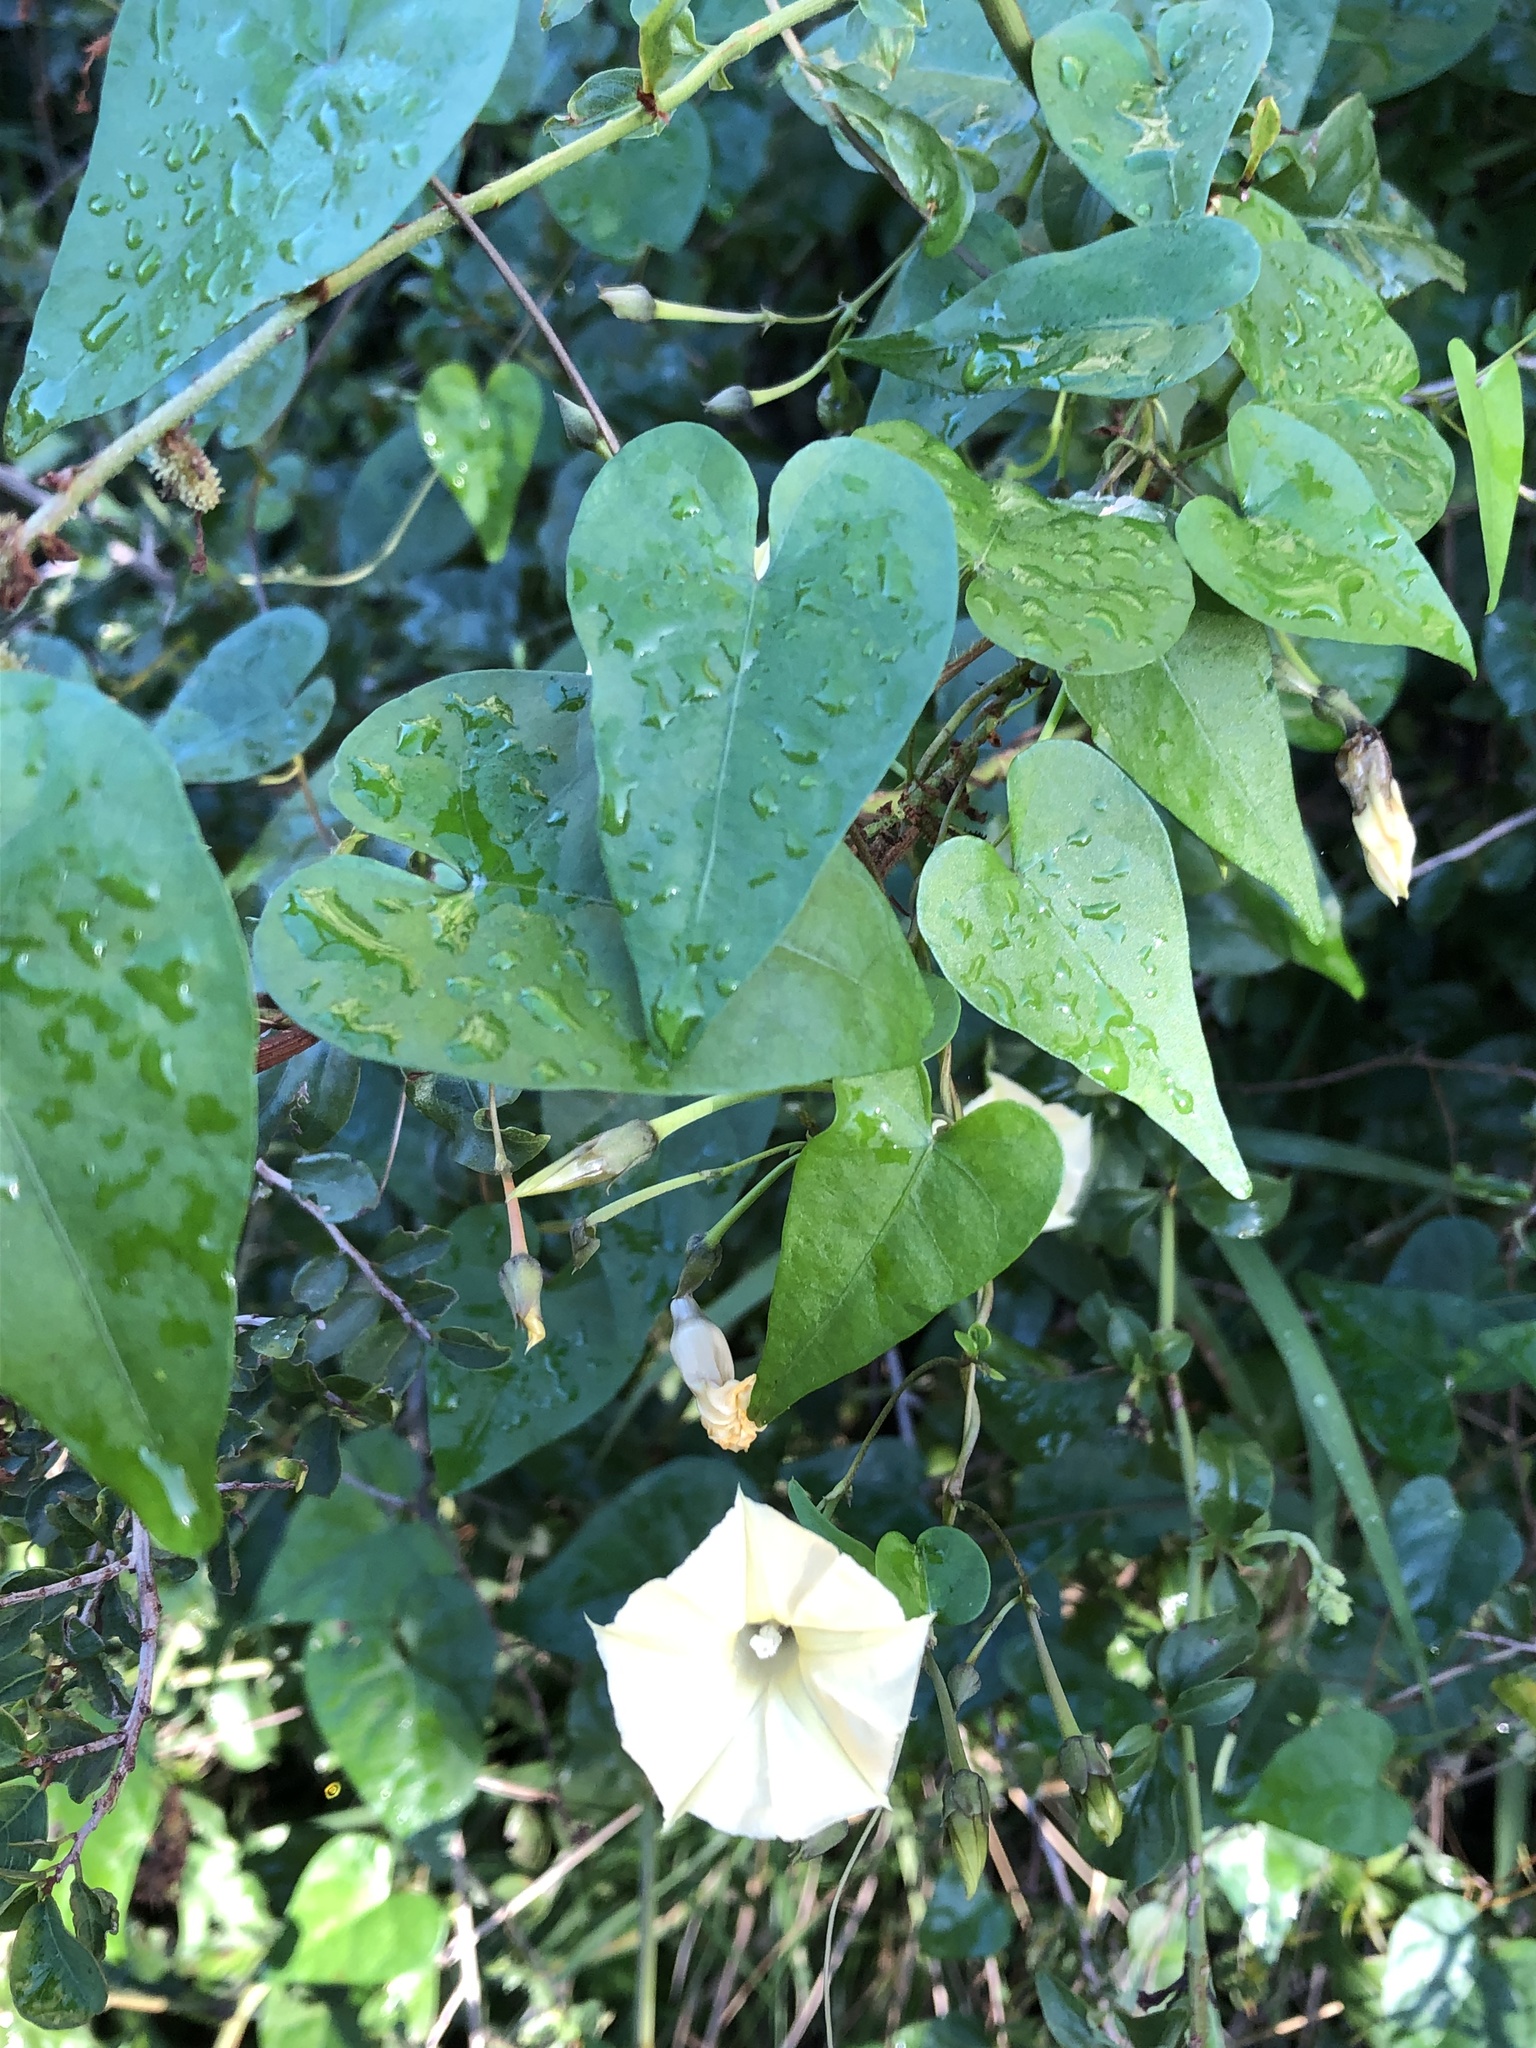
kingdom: Plantae
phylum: Tracheophyta
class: Magnoliopsida
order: Solanales
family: Convolvulaceae
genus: Ipomoea
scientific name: Ipomoea obscura
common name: Obscure morning-glory
